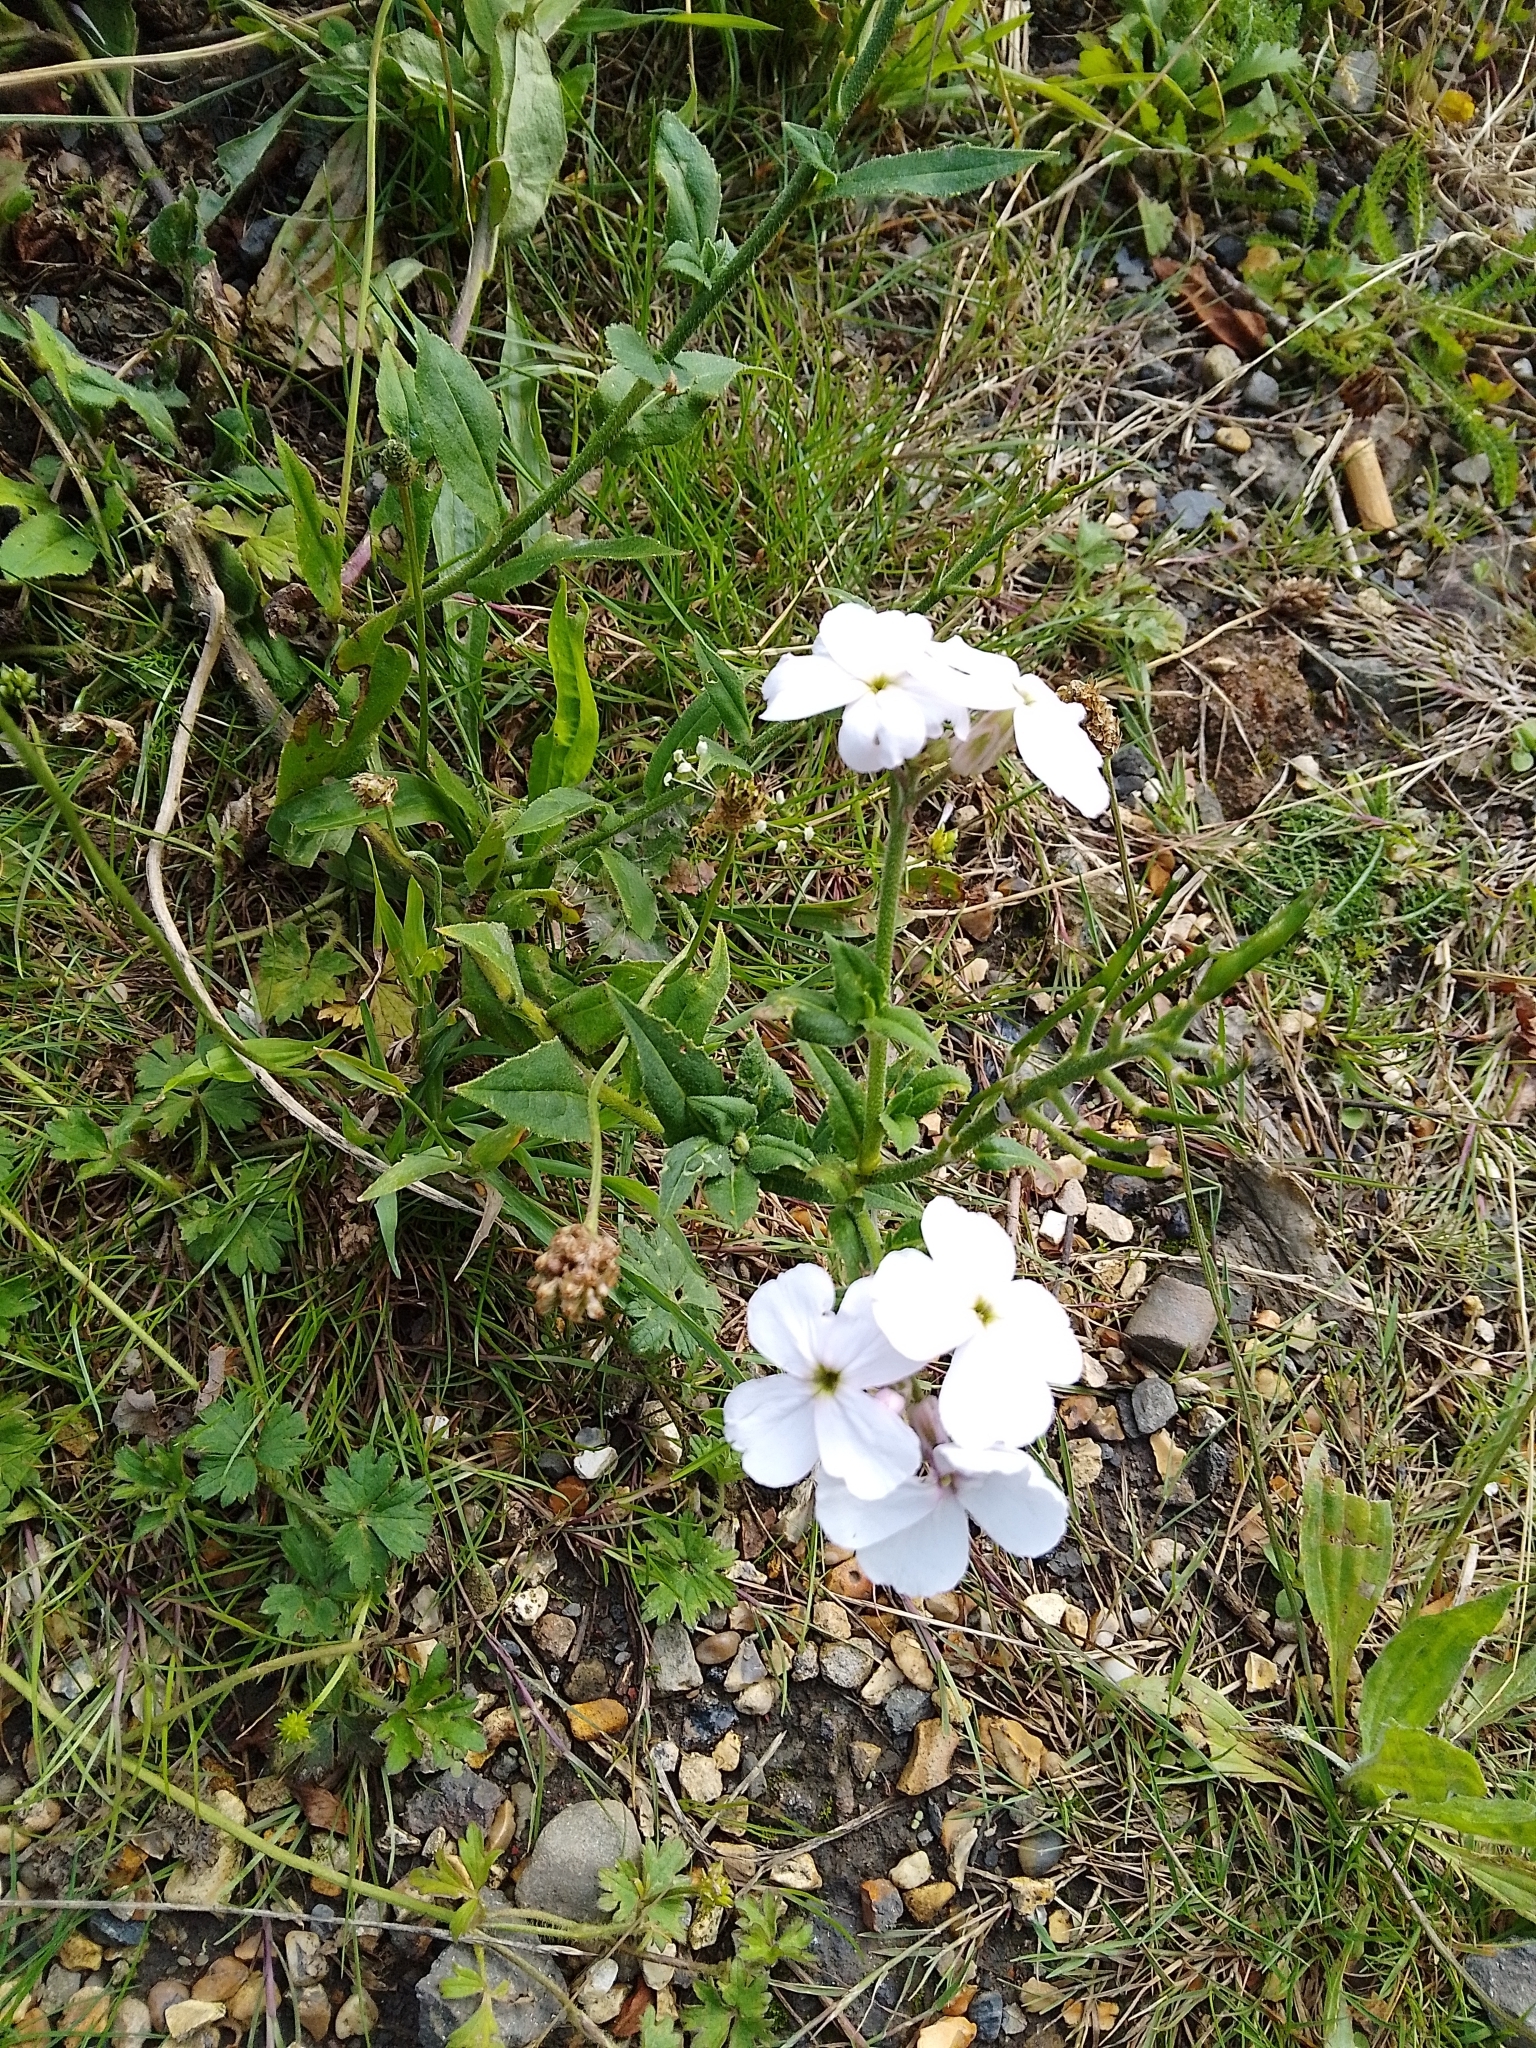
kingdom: Plantae
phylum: Tracheophyta
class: Magnoliopsida
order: Brassicales
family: Brassicaceae
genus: Hesperis
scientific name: Hesperis matronalis
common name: Dame's-violet
